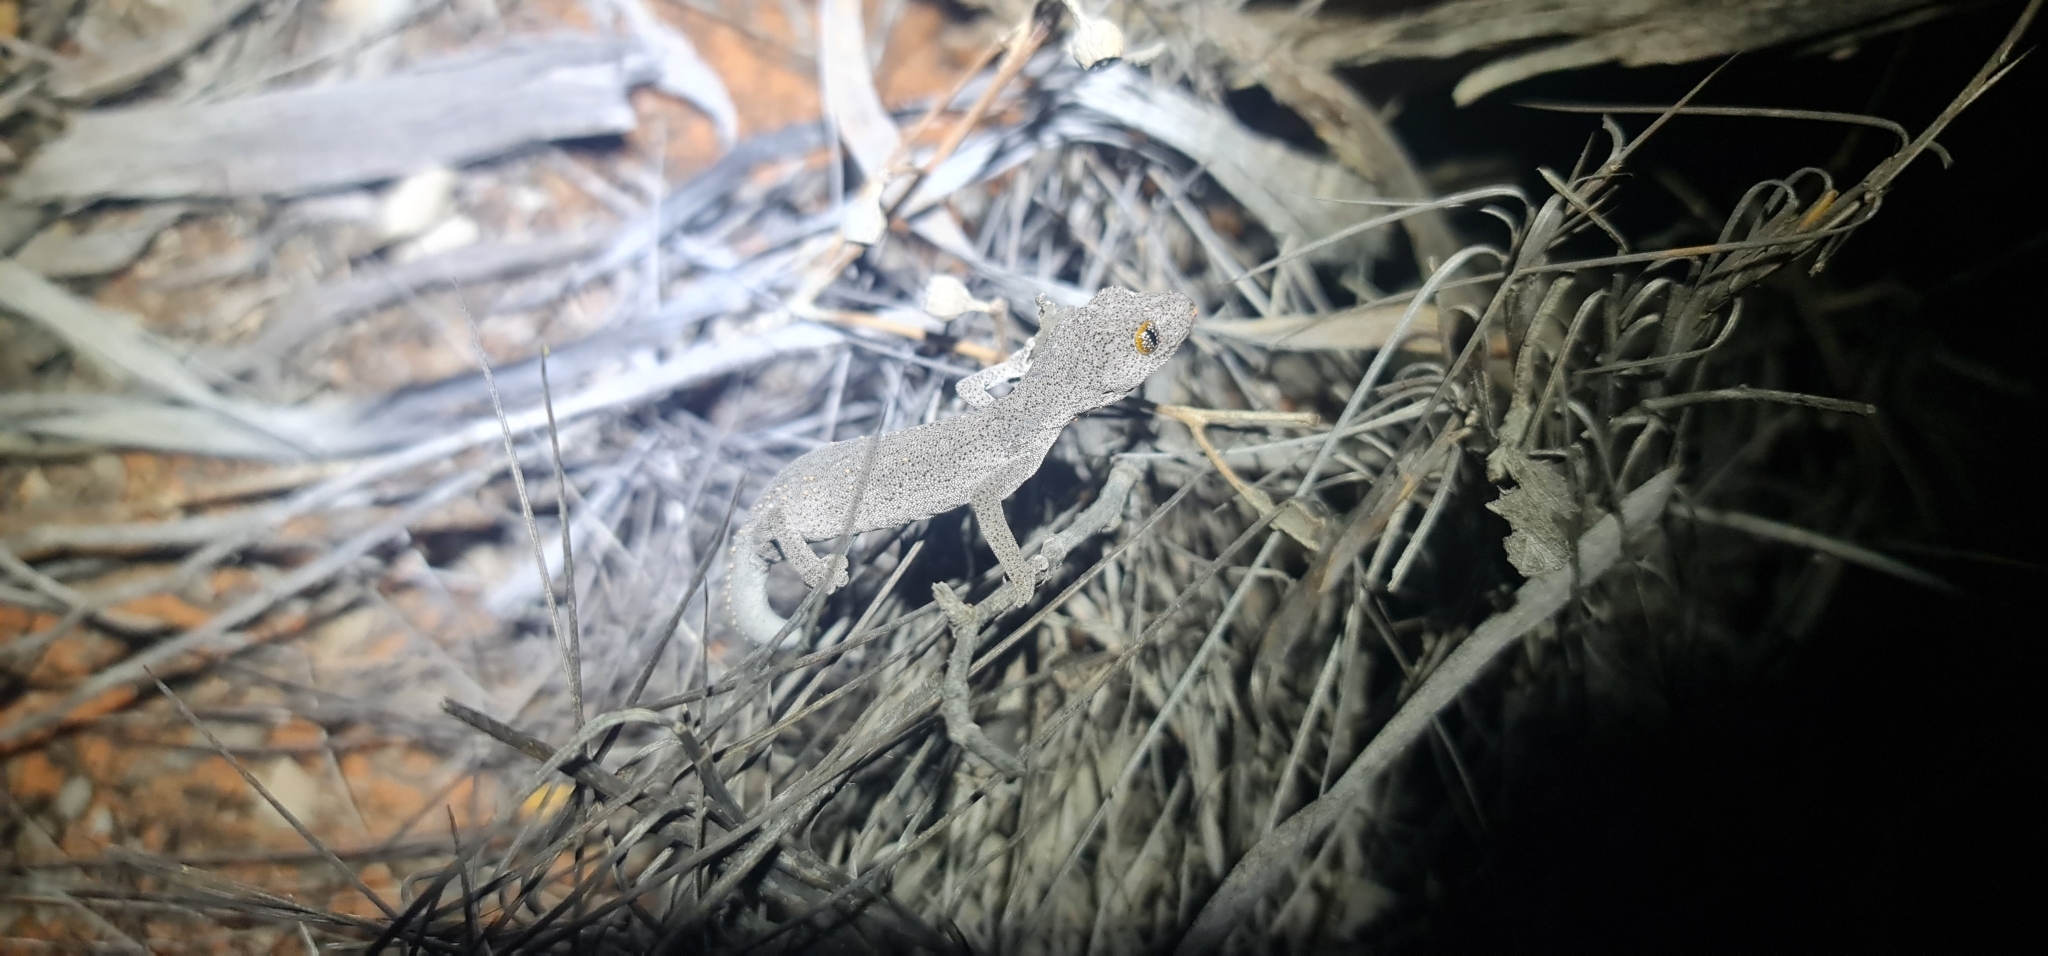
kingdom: Animalia
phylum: Chordata
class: Squamata
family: Diplodactylidae
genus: Strophurus
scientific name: Strophurus williamsi
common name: Eastern spiny-tailed gecko
